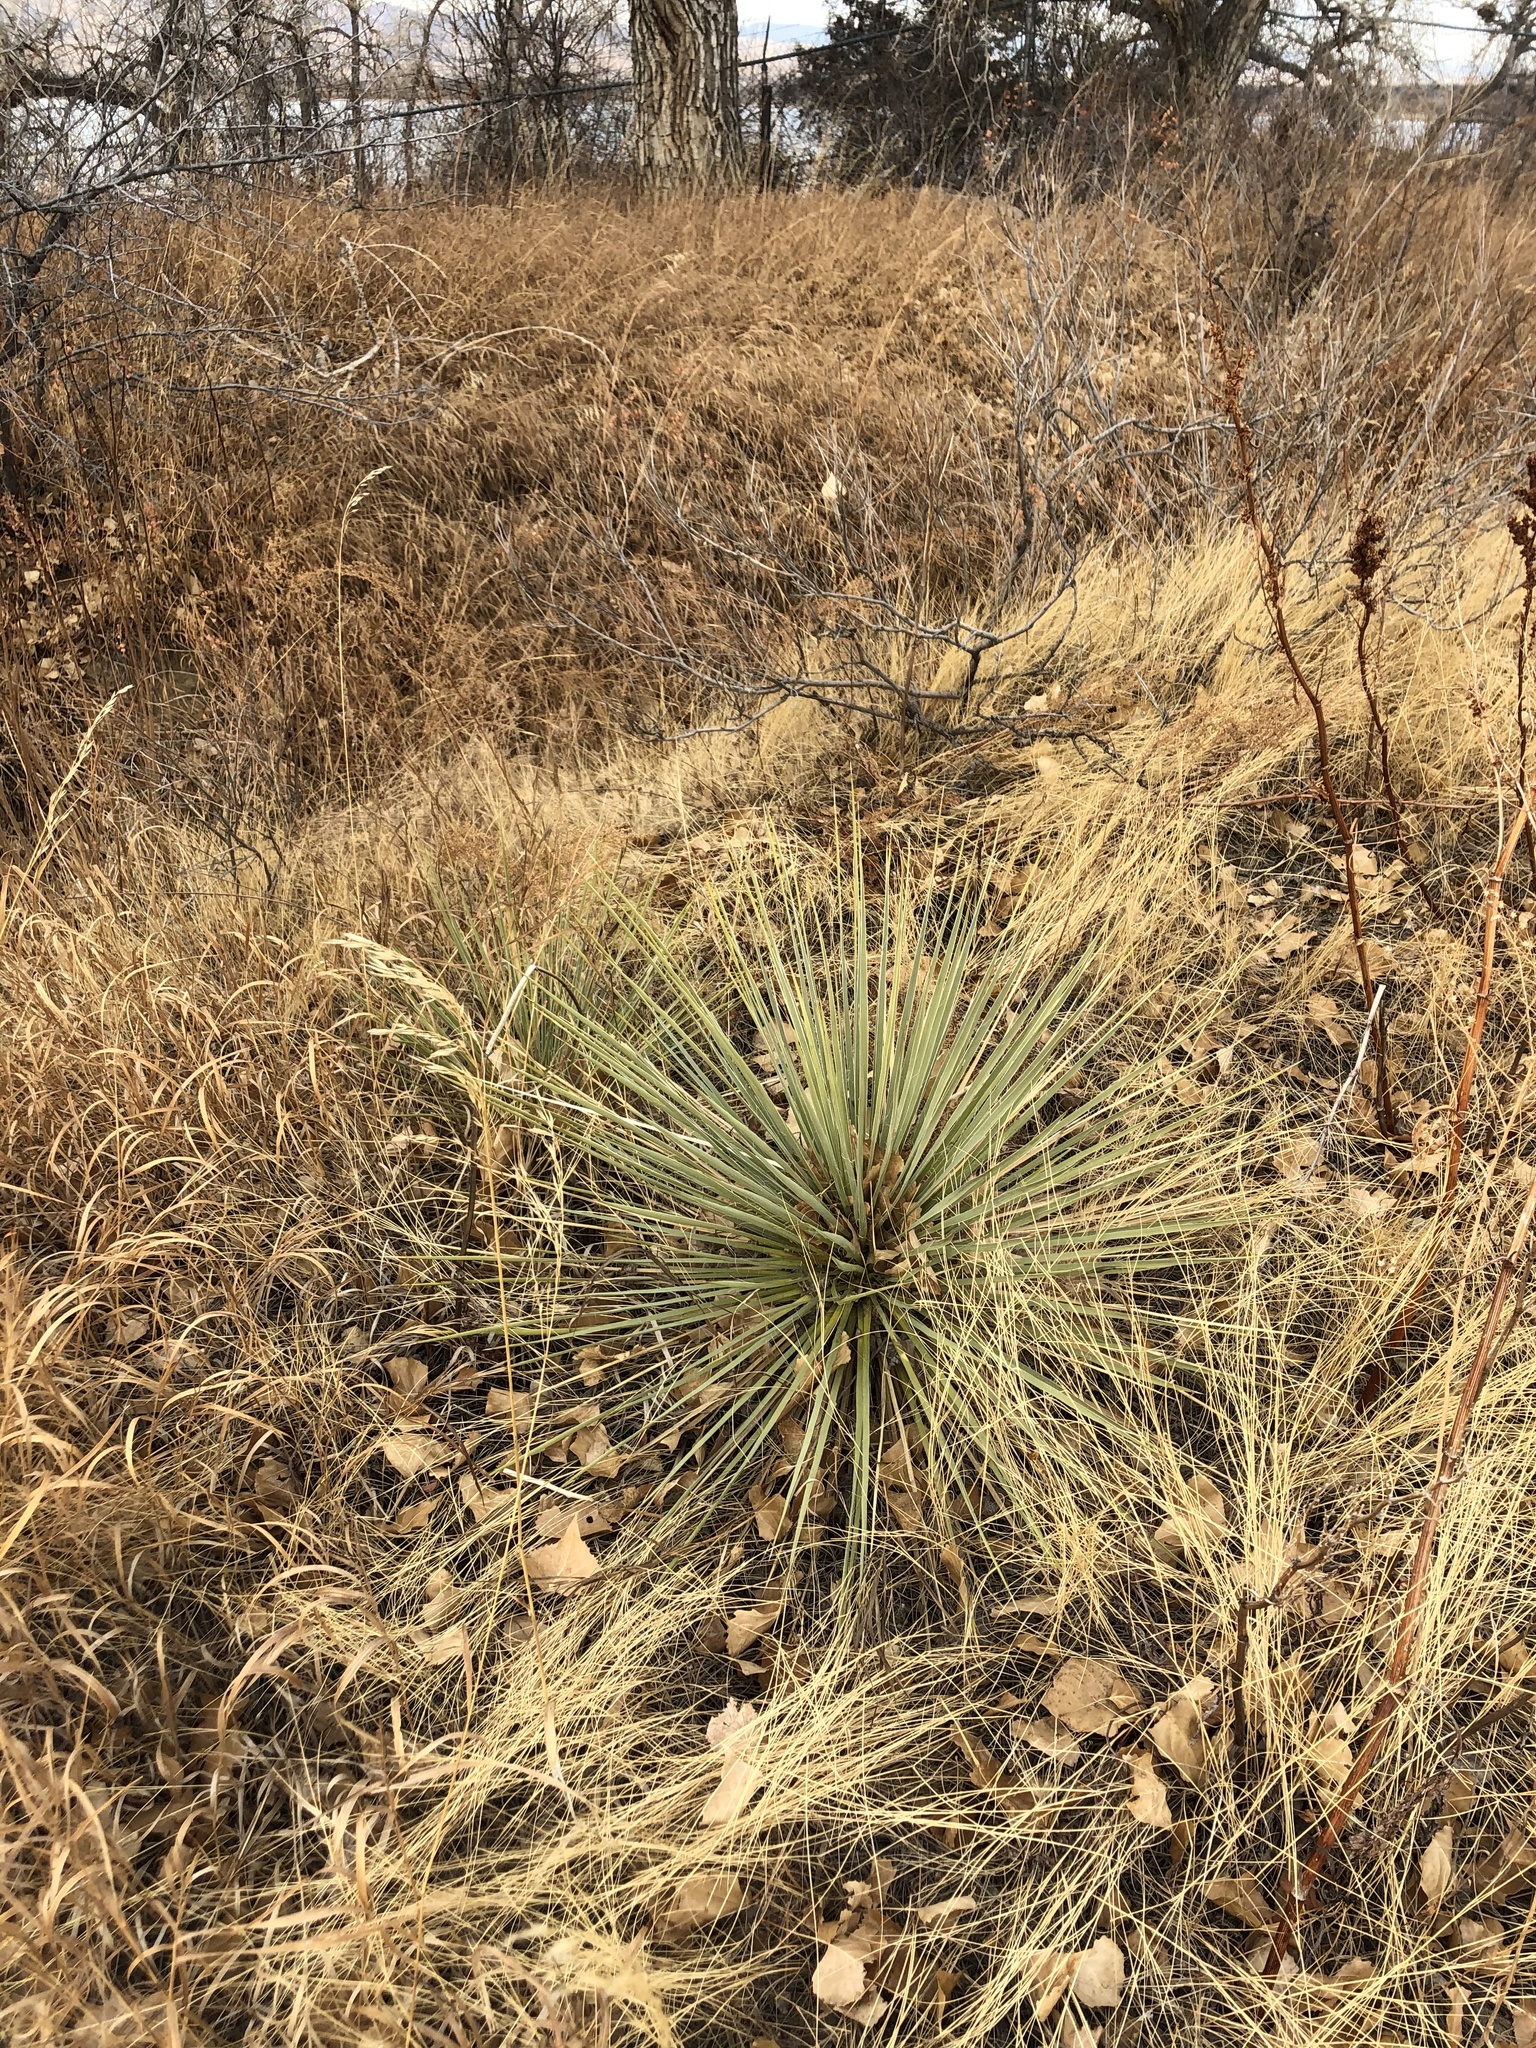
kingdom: Plantae
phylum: Tracheophyta
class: Liliopsida
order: Asparagales
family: Asparagaceae
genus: Yucca
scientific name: Yucca glauca
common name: Great plains yucca
